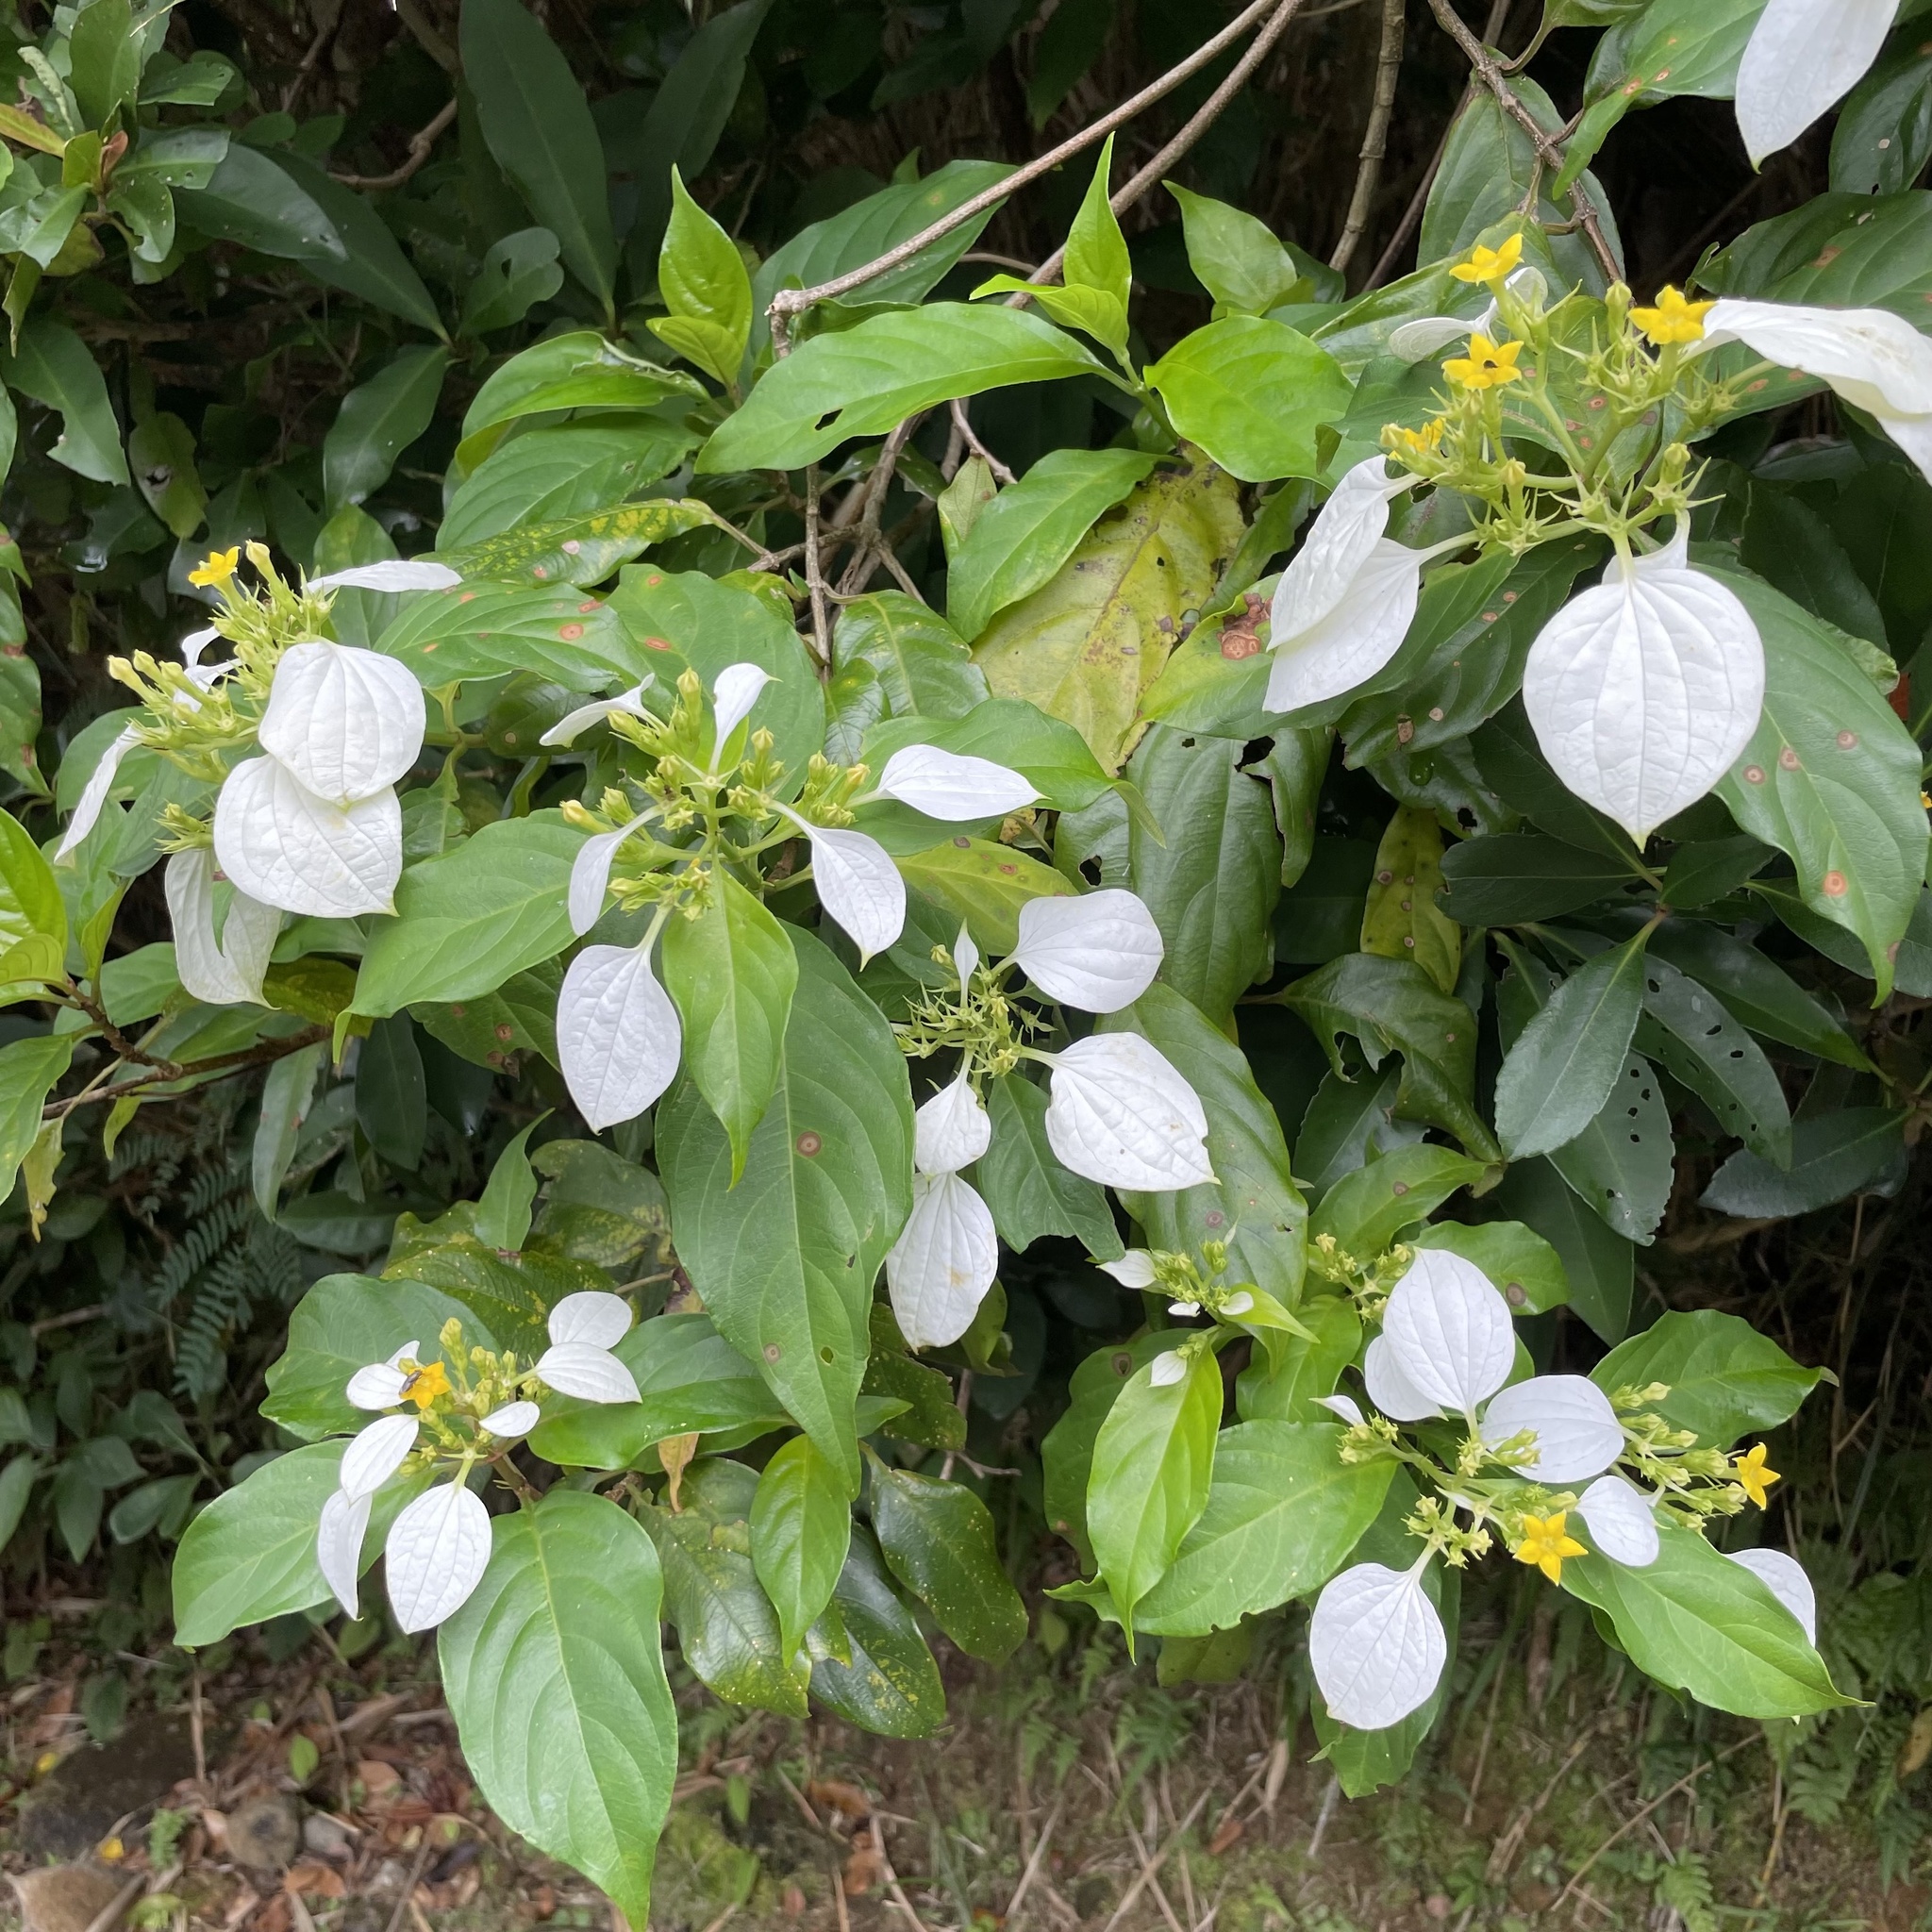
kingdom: Plantae
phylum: Tracheophyta
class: Magnoliopsida
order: Gentianales
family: Rubiaceae
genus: Mussaenda
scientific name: Mussaenda parviflora
